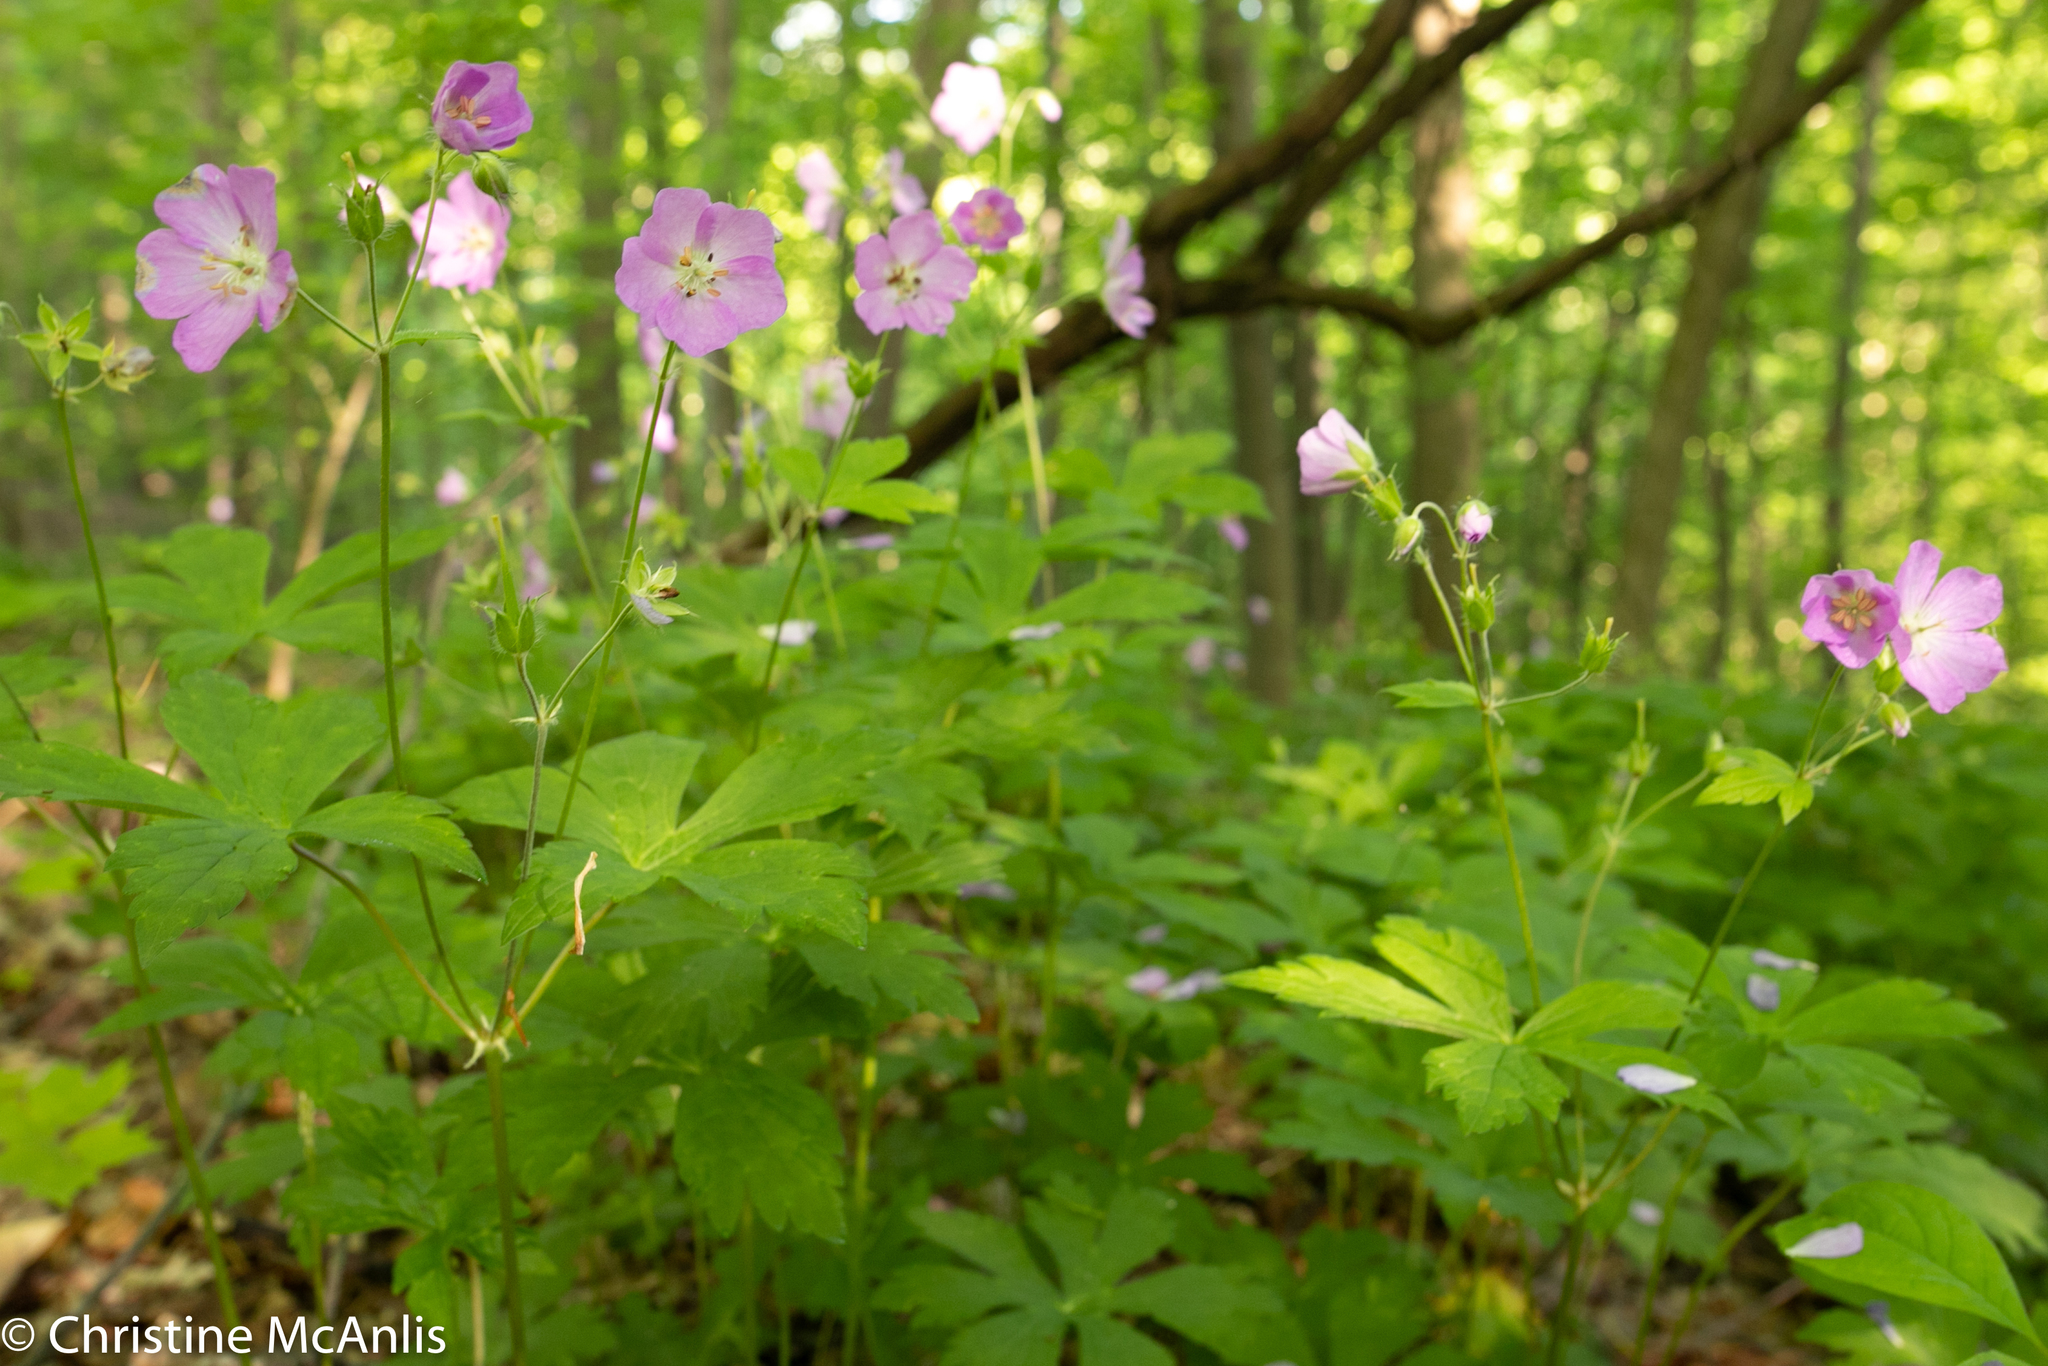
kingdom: Plantae
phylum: Tracheophyta
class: Magnoliopsida
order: Geraniales
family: Geraniaceae
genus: Geranium
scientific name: Geranium maculatum
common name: Spotted geranium
